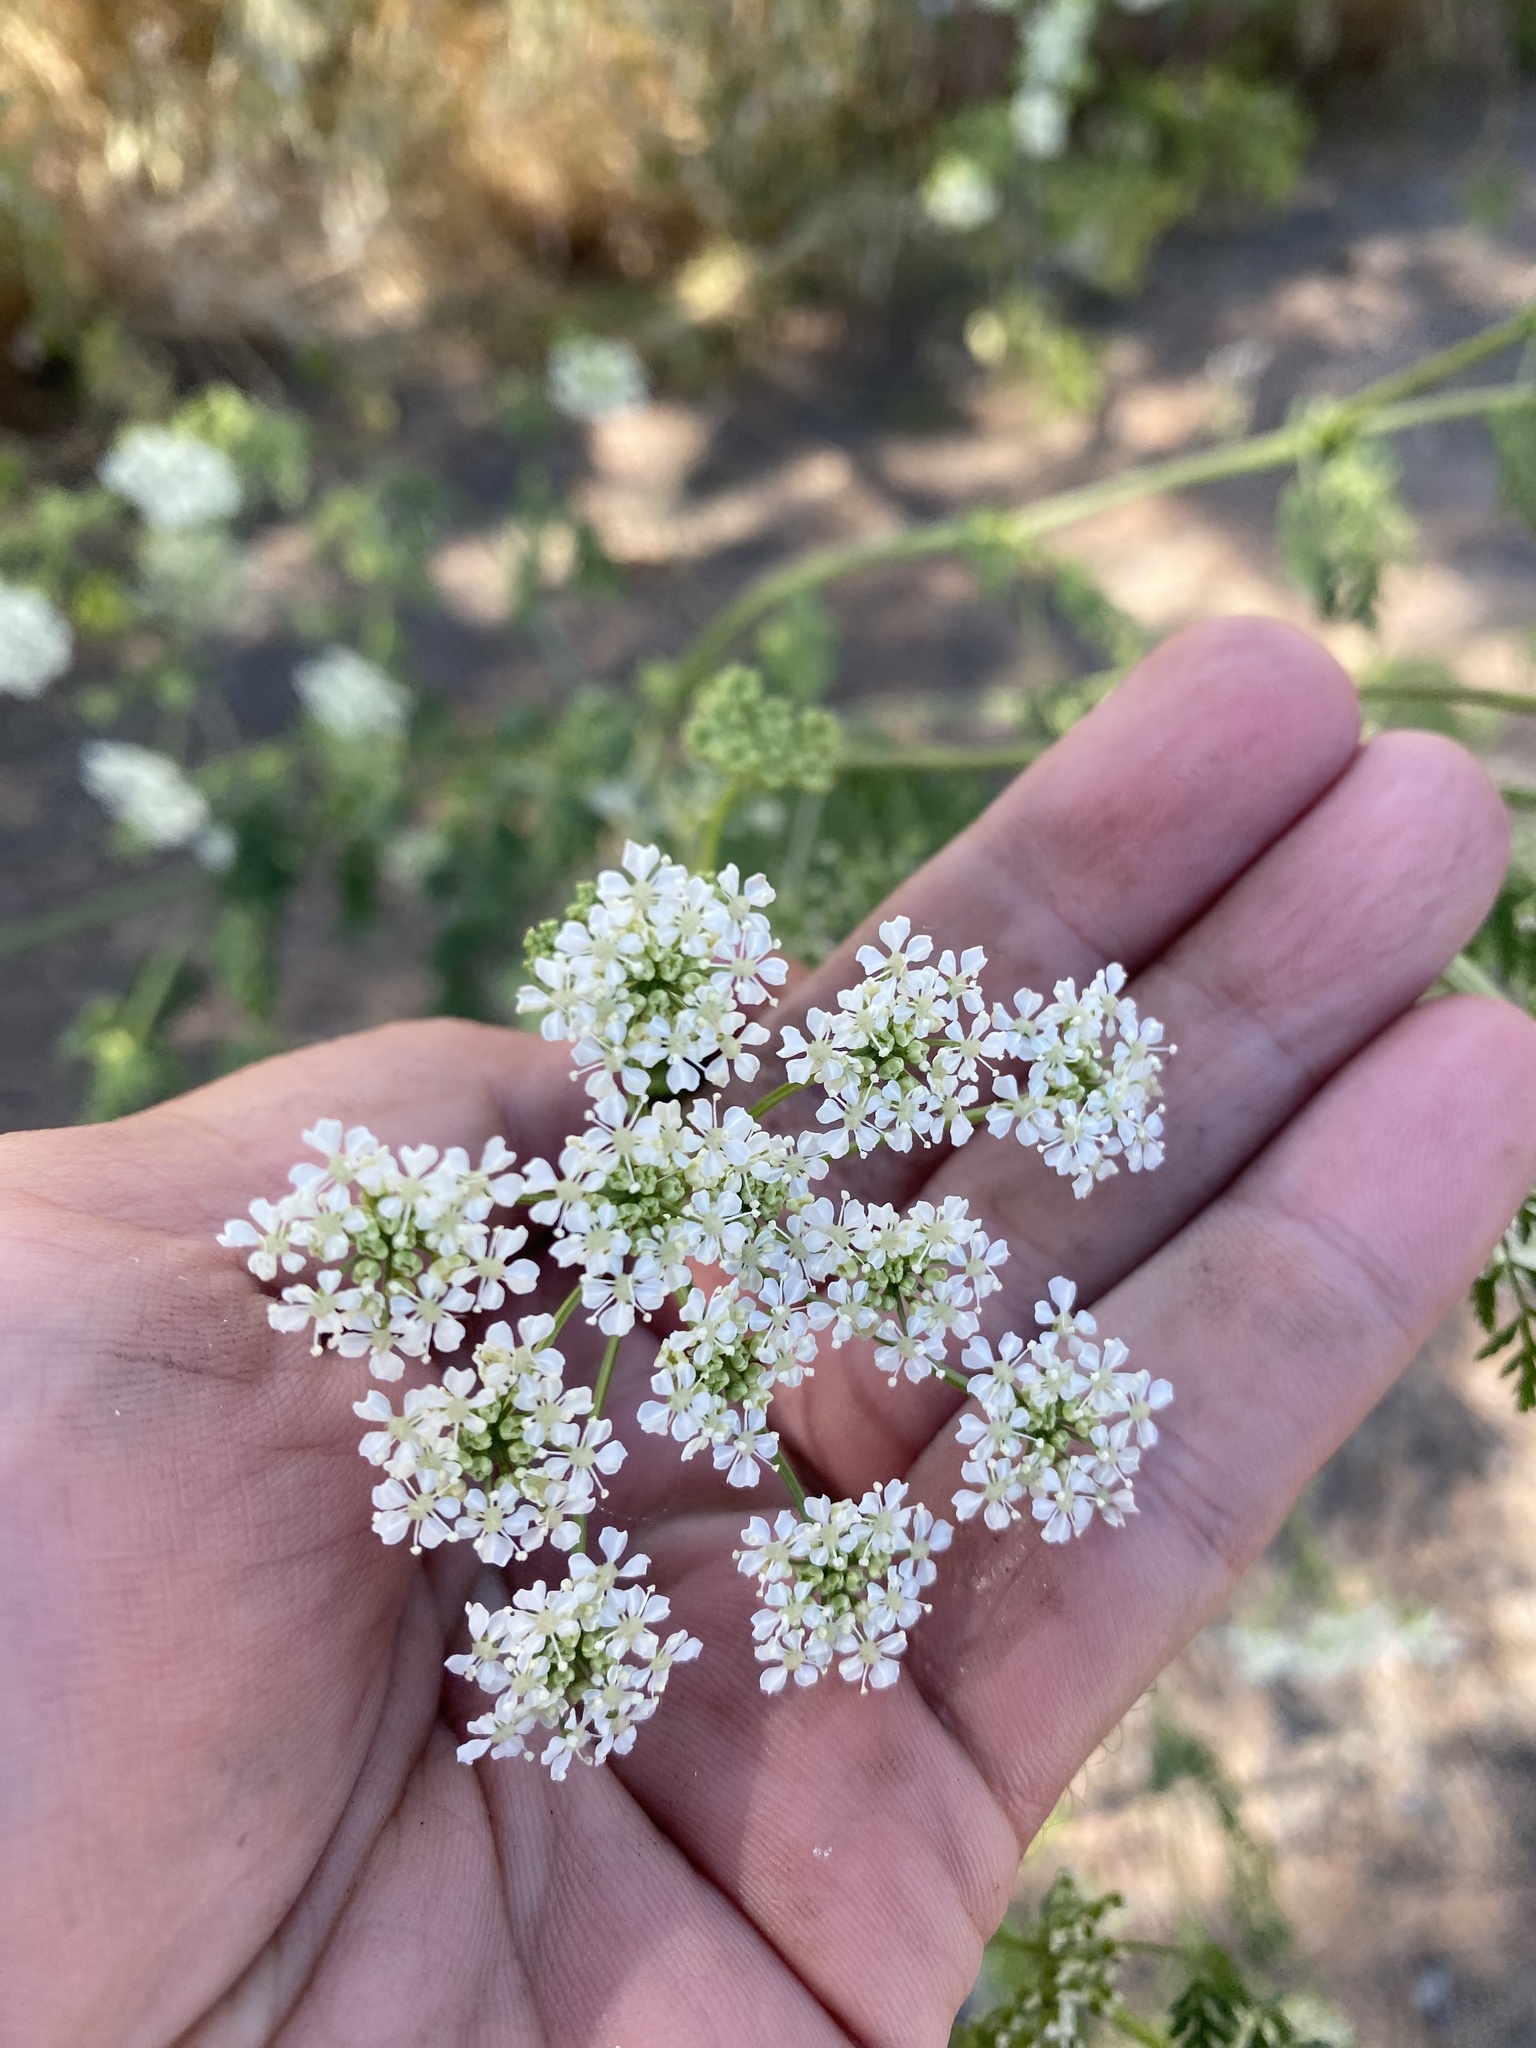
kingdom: Plantae
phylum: Tracheophyta
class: Magnoliopsida
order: Apiales
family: Apiaceae
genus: Conium
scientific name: Conium maculatum
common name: Hemlock
